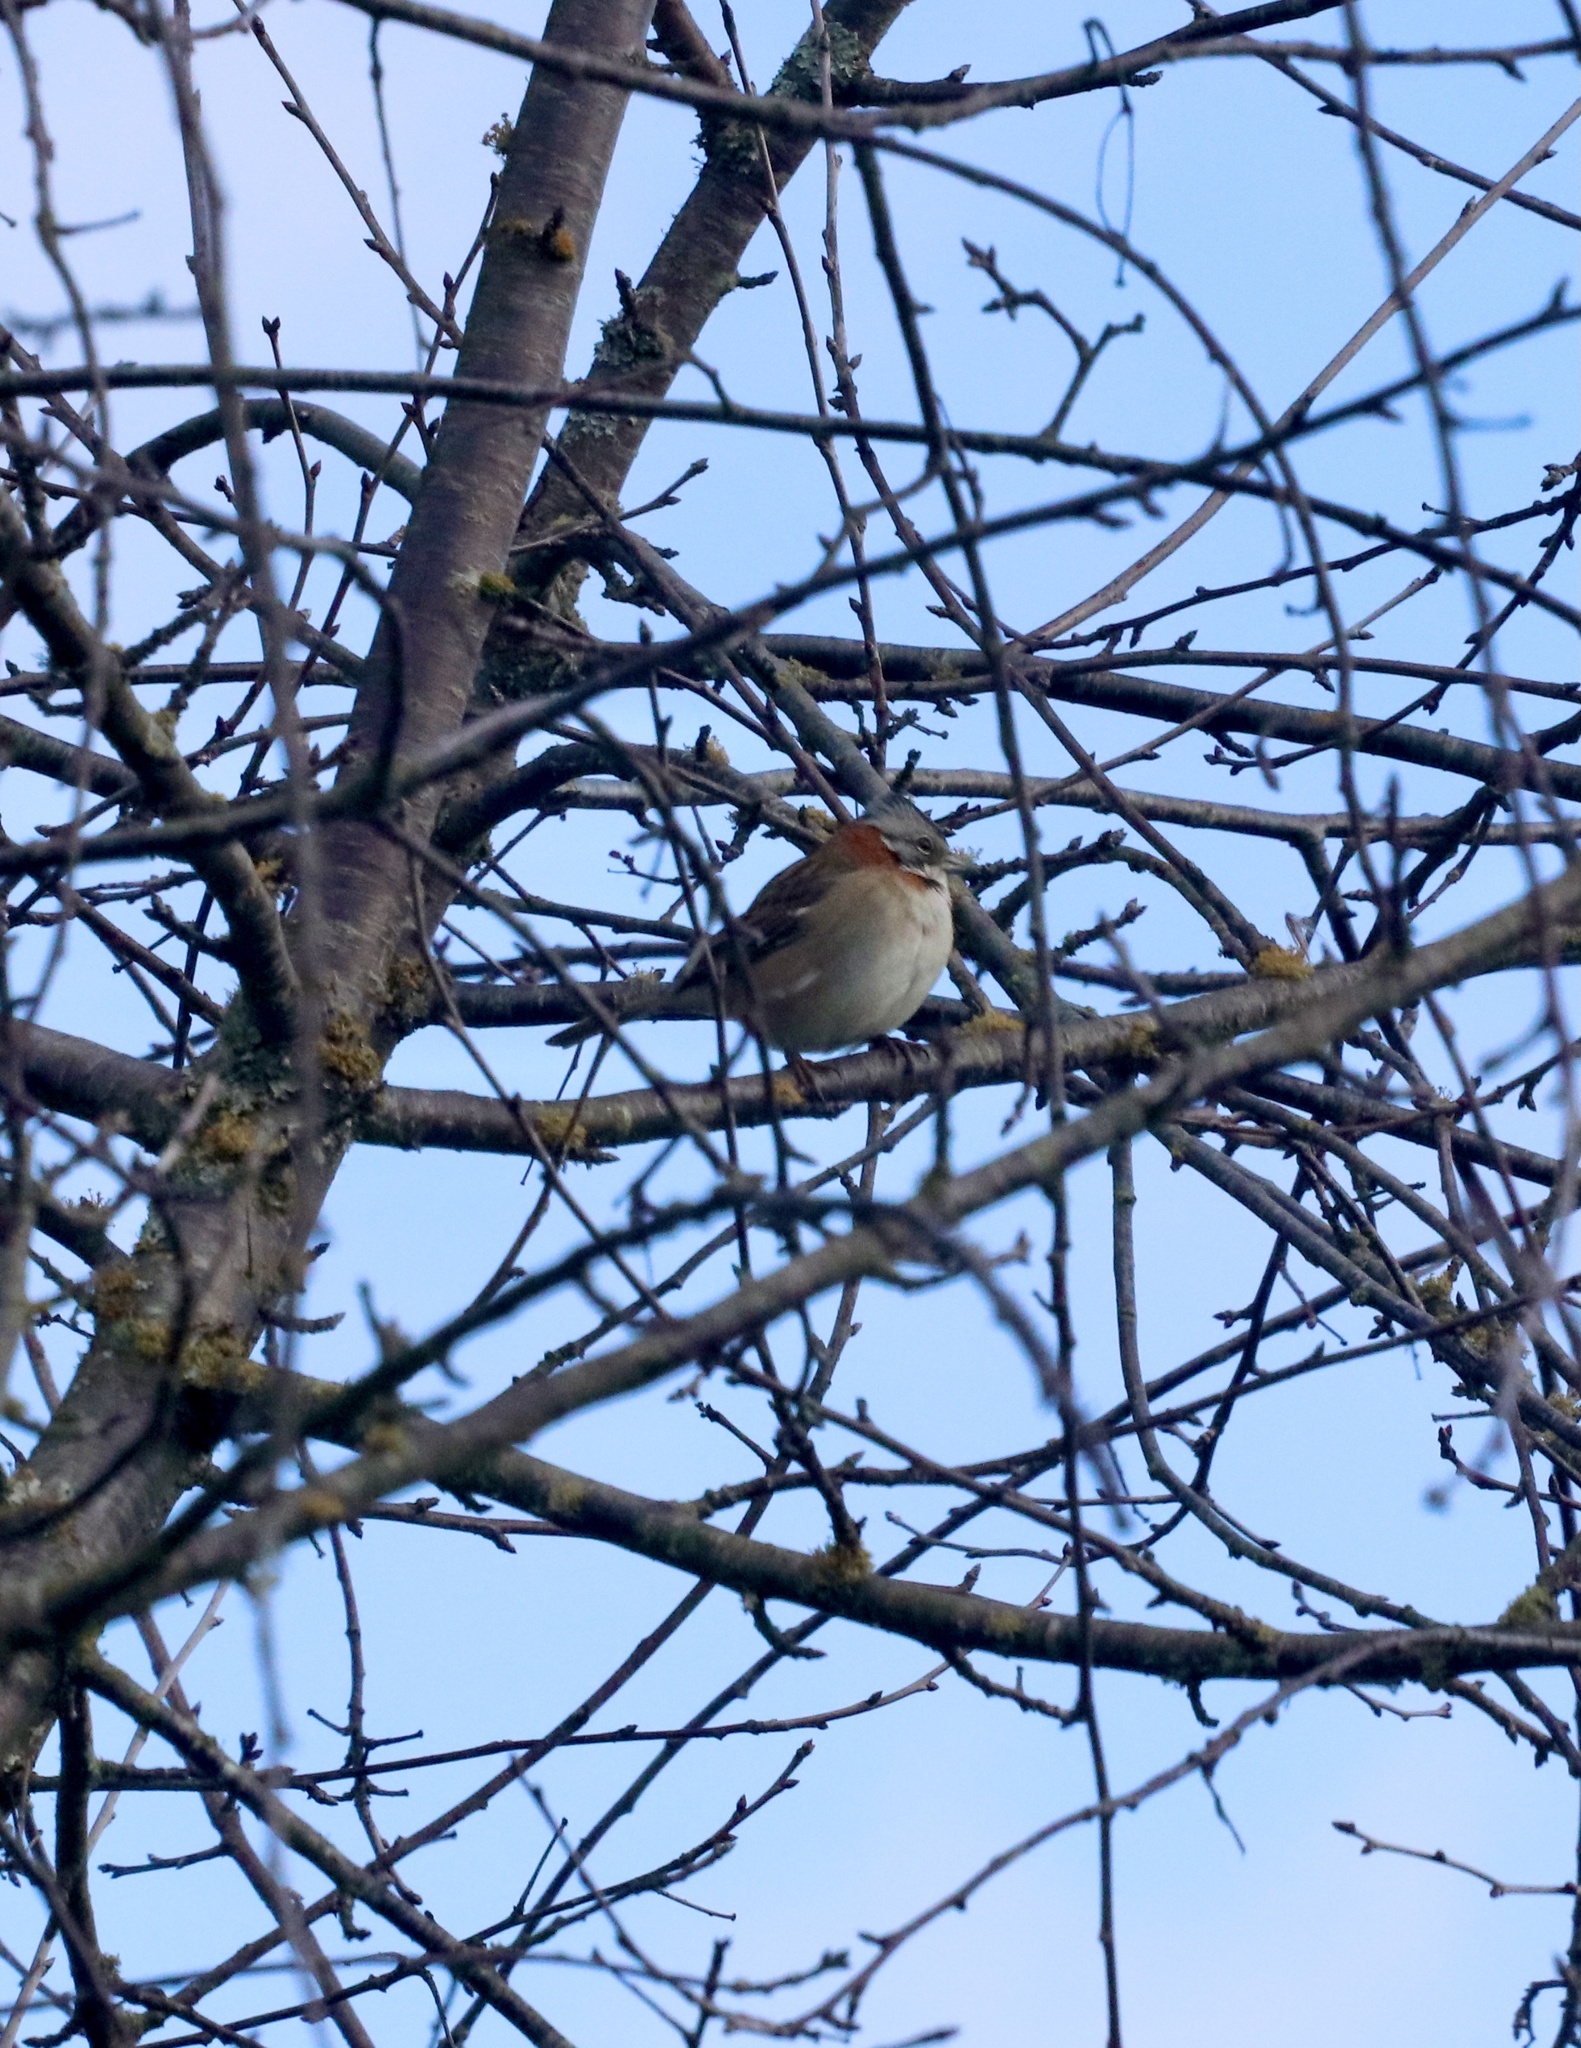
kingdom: Animalia
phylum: Chordata
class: Aves
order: Passeriformes
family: Passerellidae
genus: Zonotrichia
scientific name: Zonotrichia capensis
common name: Rufous-collared sparrow
